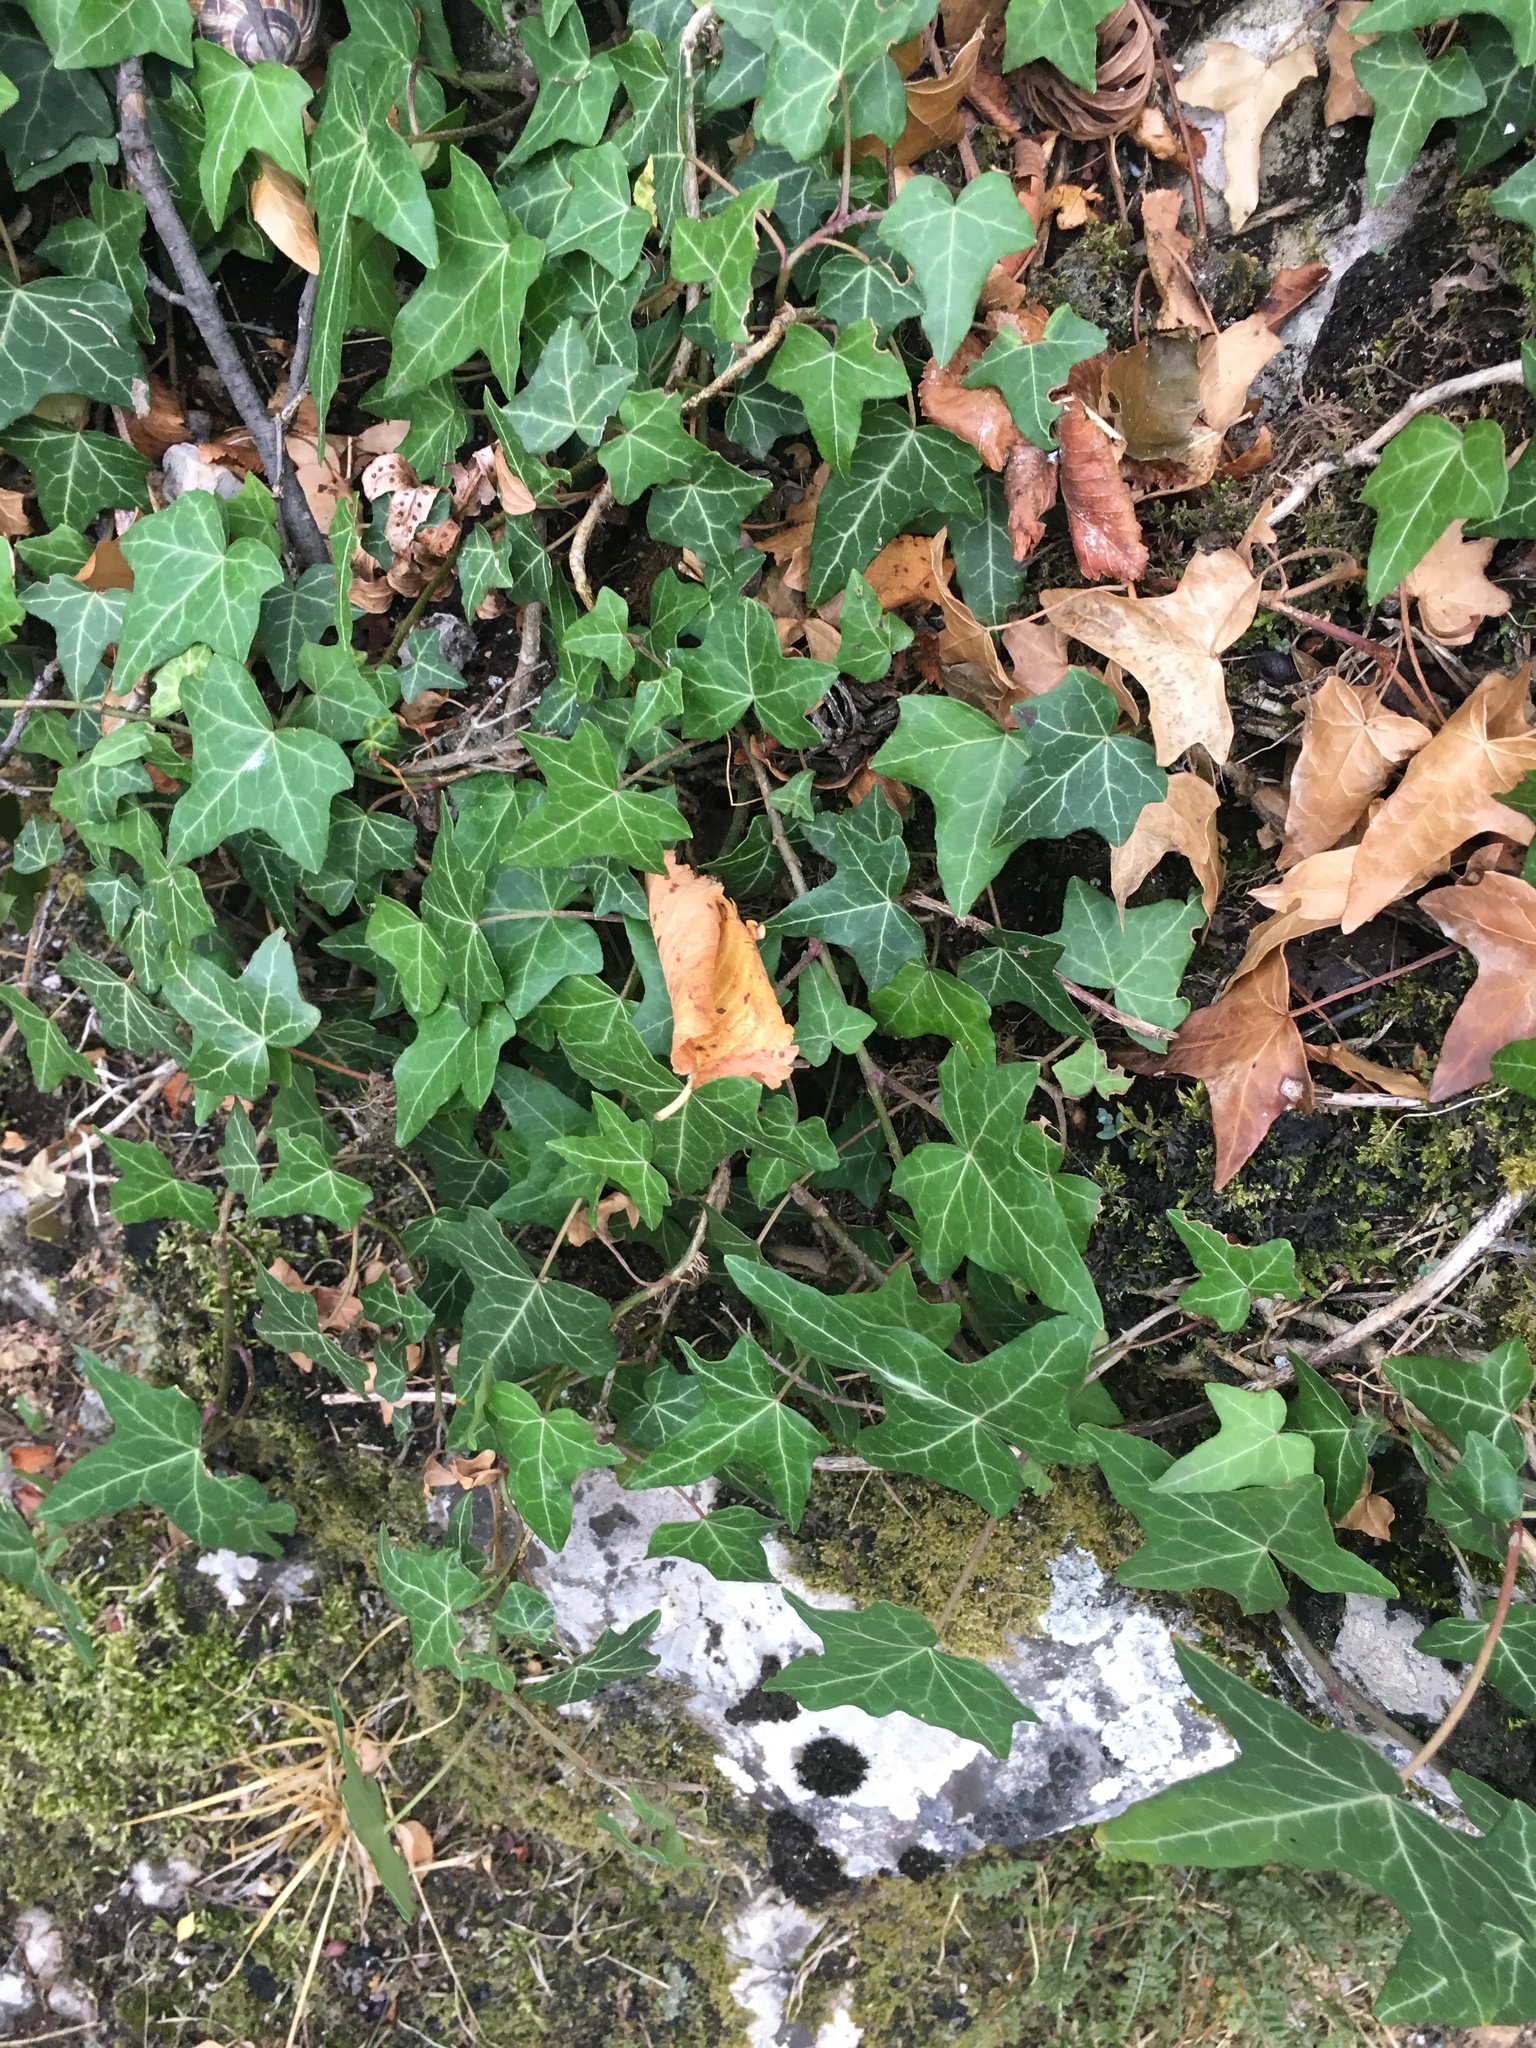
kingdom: Plantae
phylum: Tracheophyta
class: Magnoliopsida
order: Apiales
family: Araliaceae
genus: Hedera
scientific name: Hedera helix
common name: Ivy
